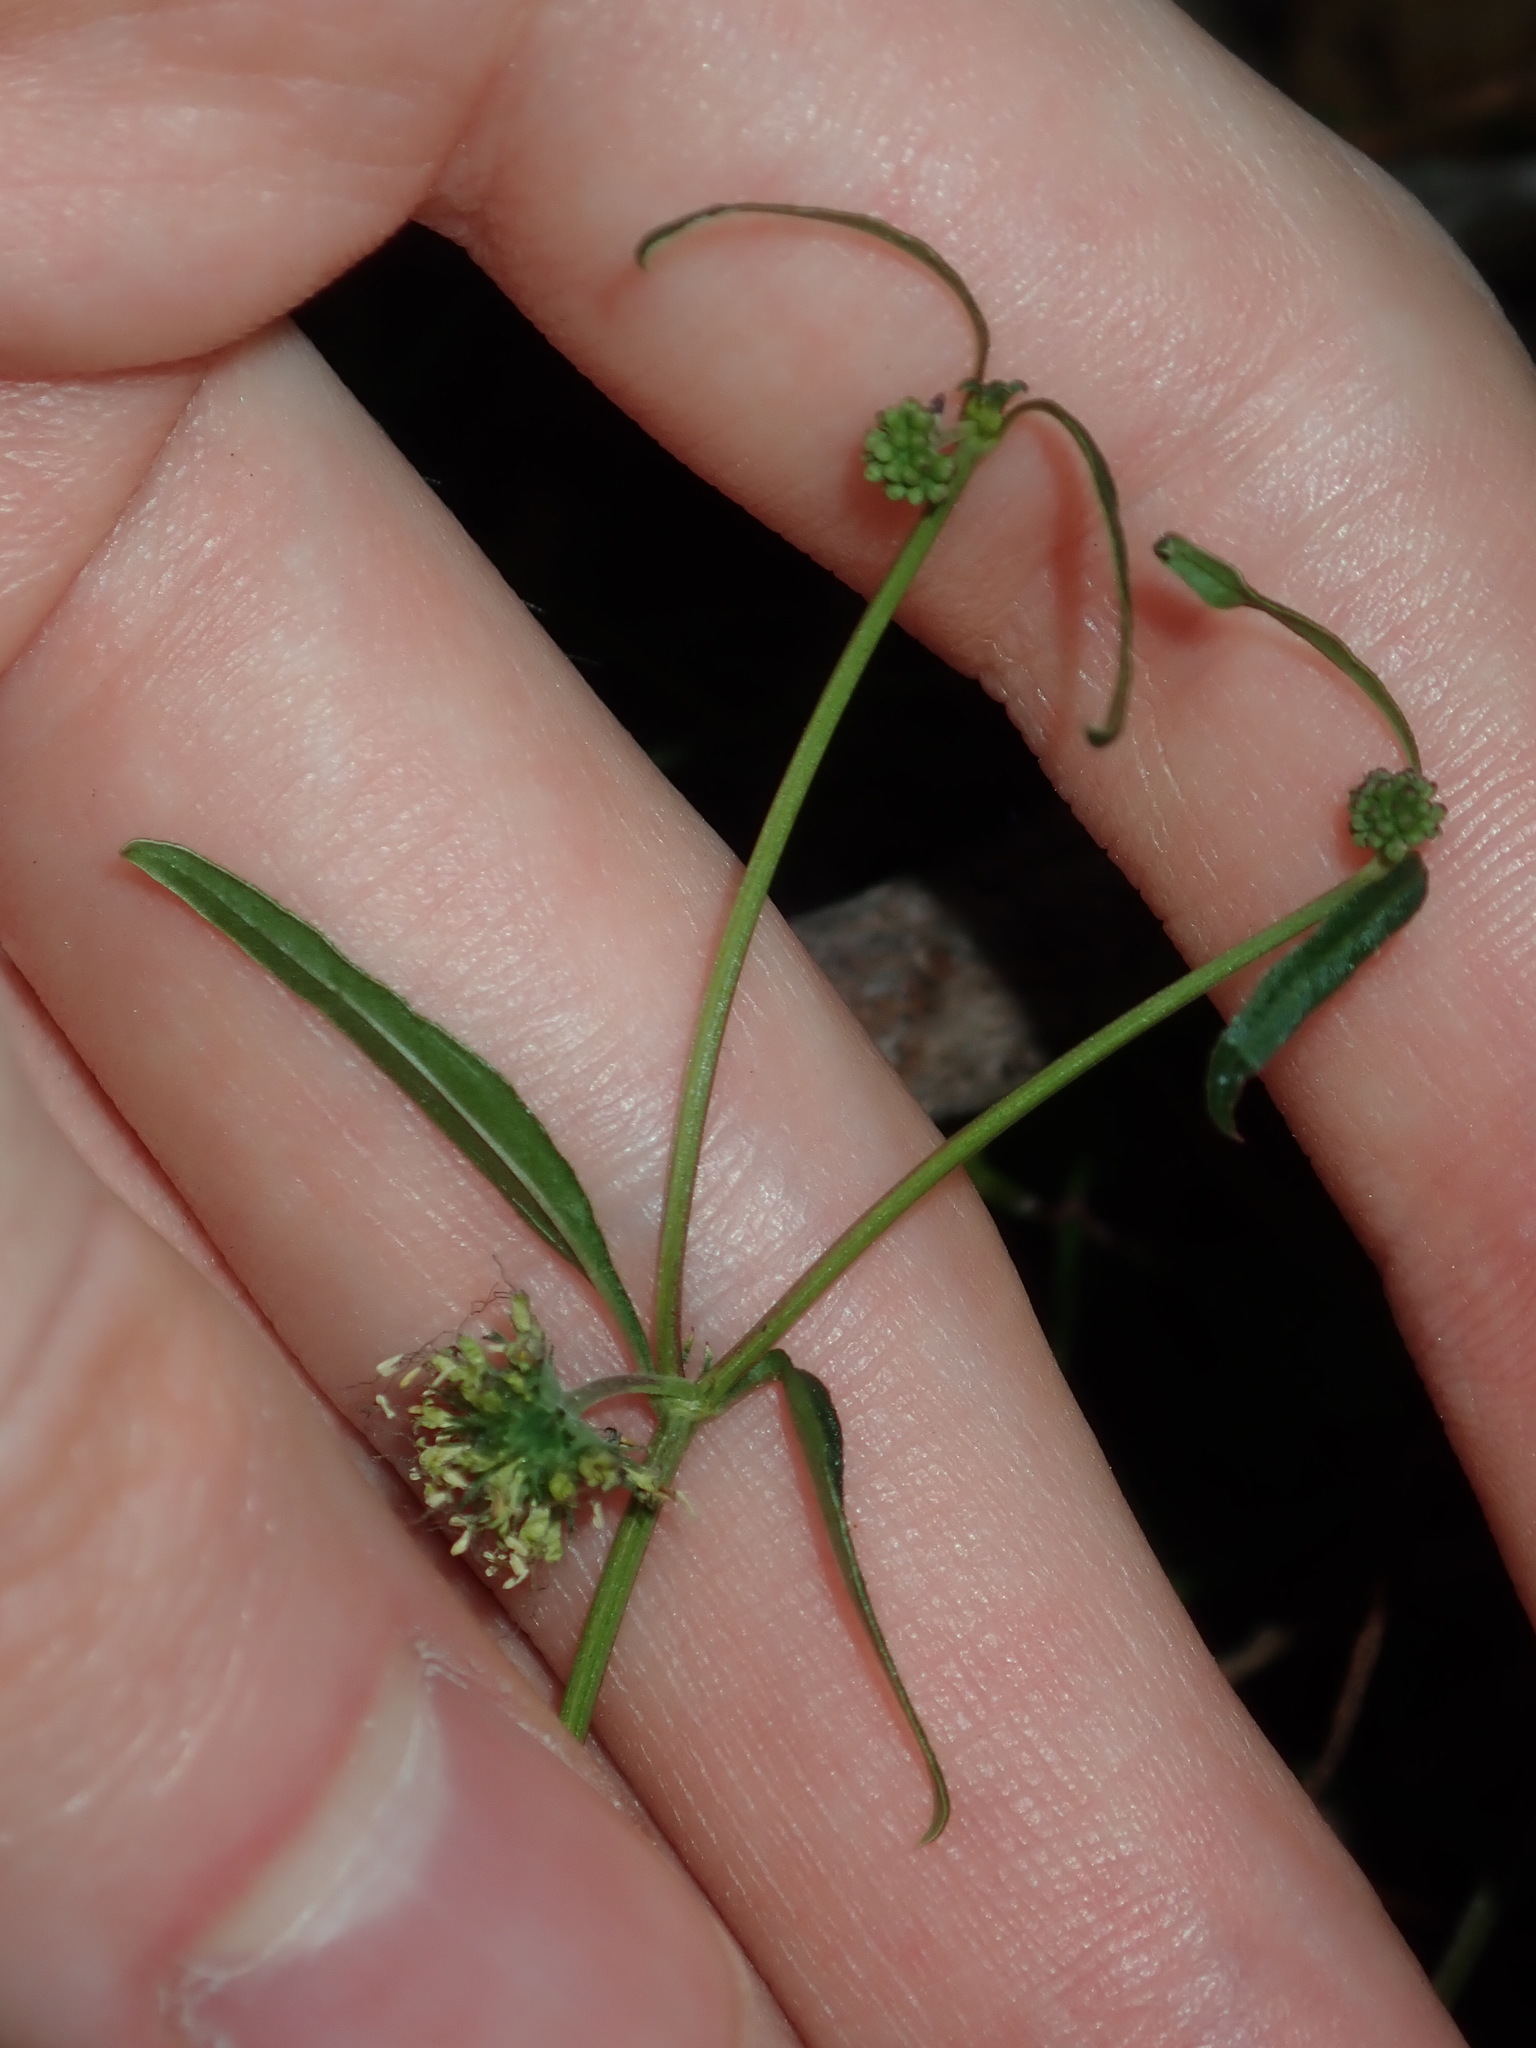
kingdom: Plantae
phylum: Tracheophyta
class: Magnoliopsida
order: Gentianales
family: Rubiaceae
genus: Opercularia
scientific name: Opercularia diphylla
